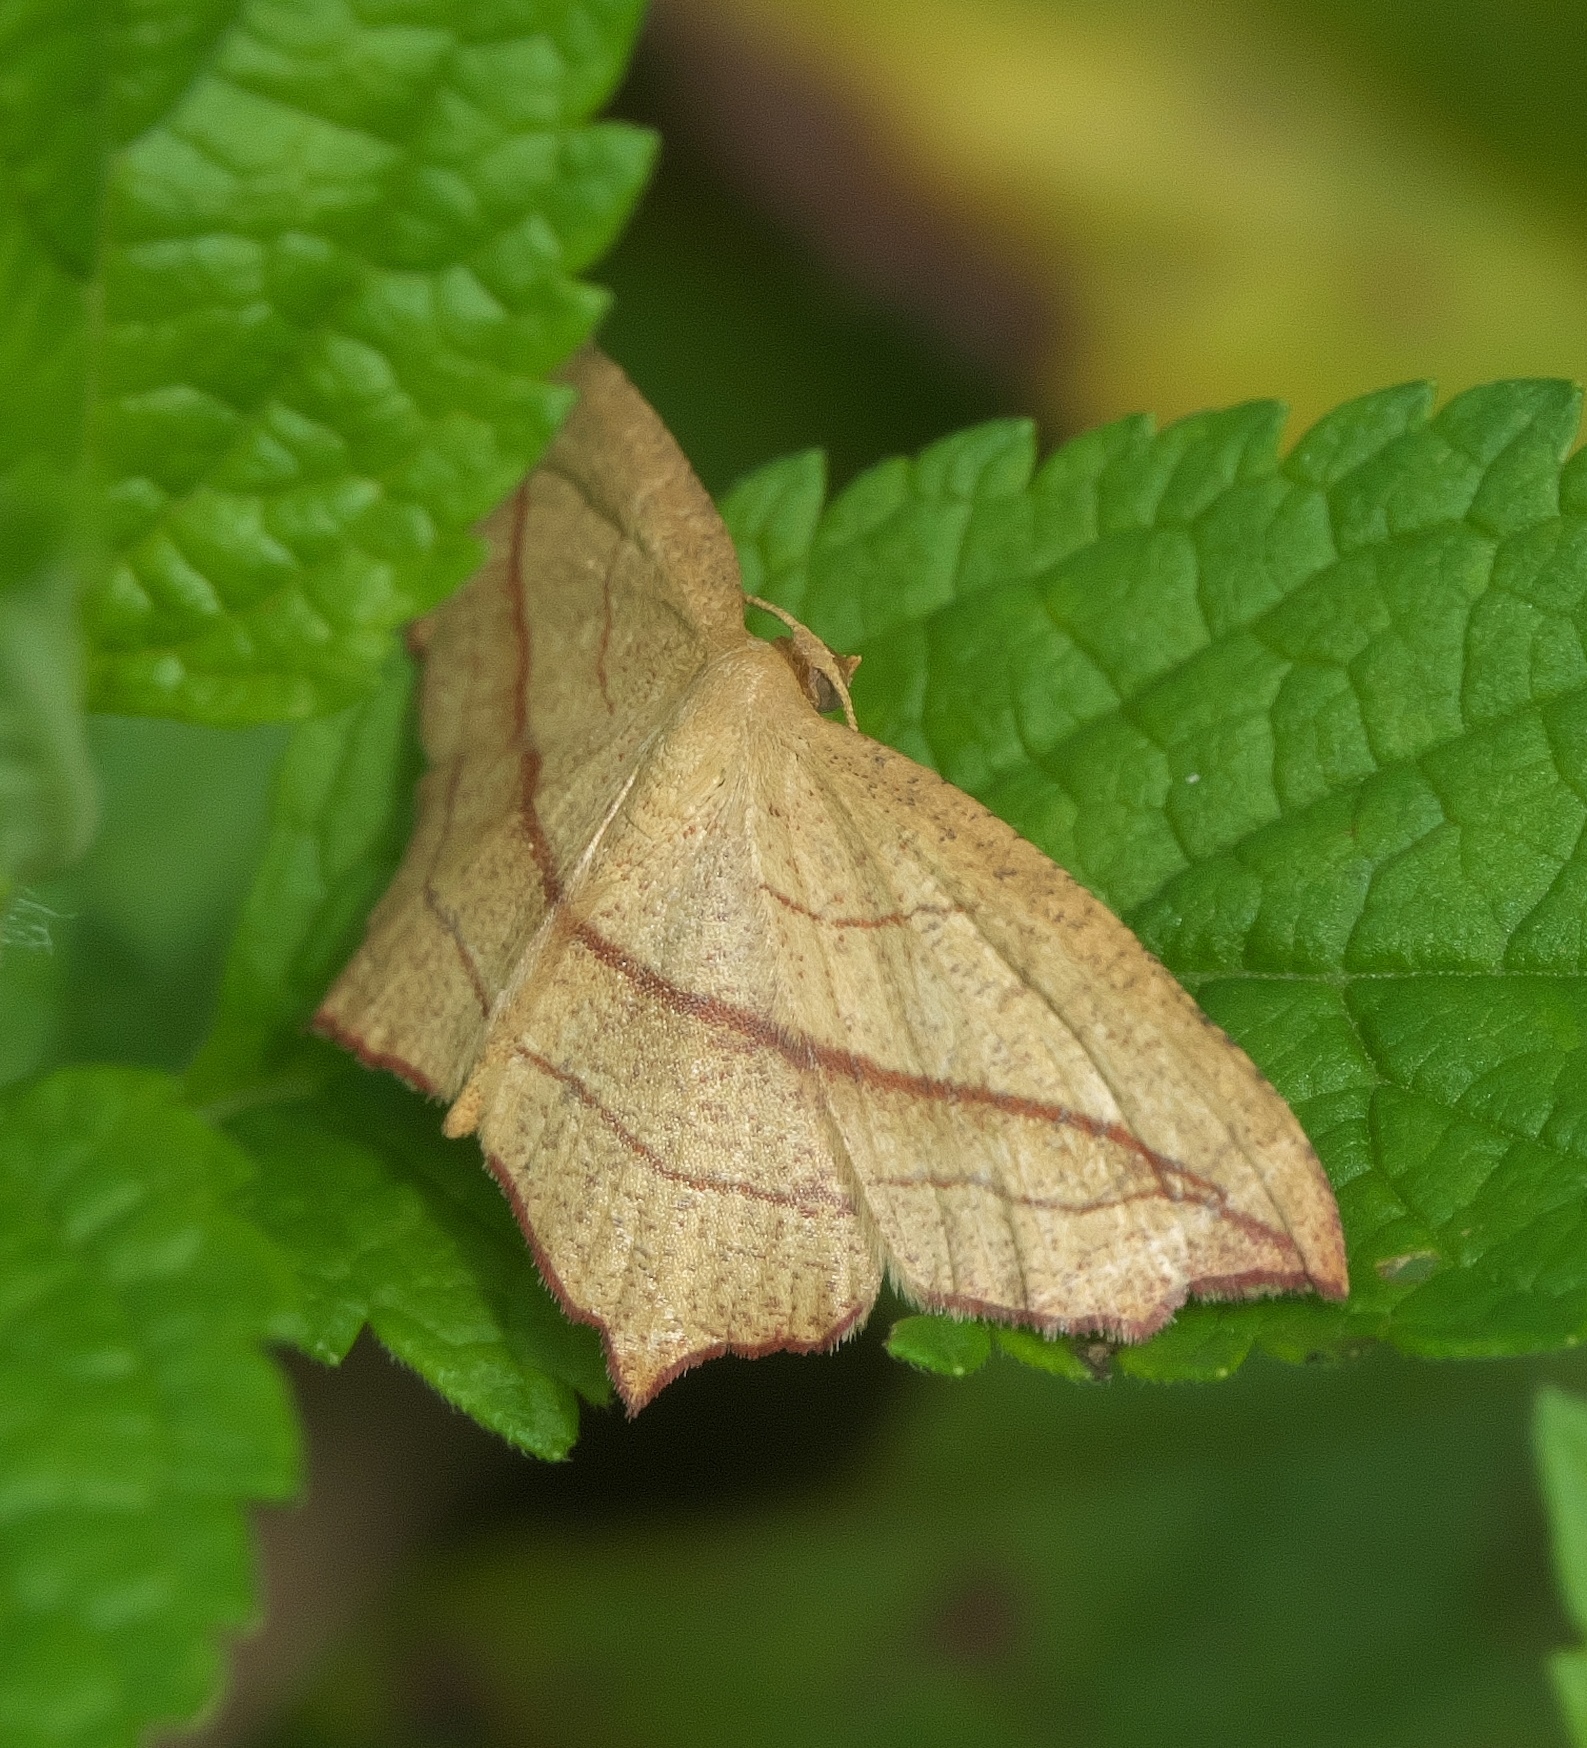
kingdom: Animalia
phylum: Arthropoda
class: Insecta
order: Lepidoptera
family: Geometridae
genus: Timandra
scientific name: Timandra amaturaria
